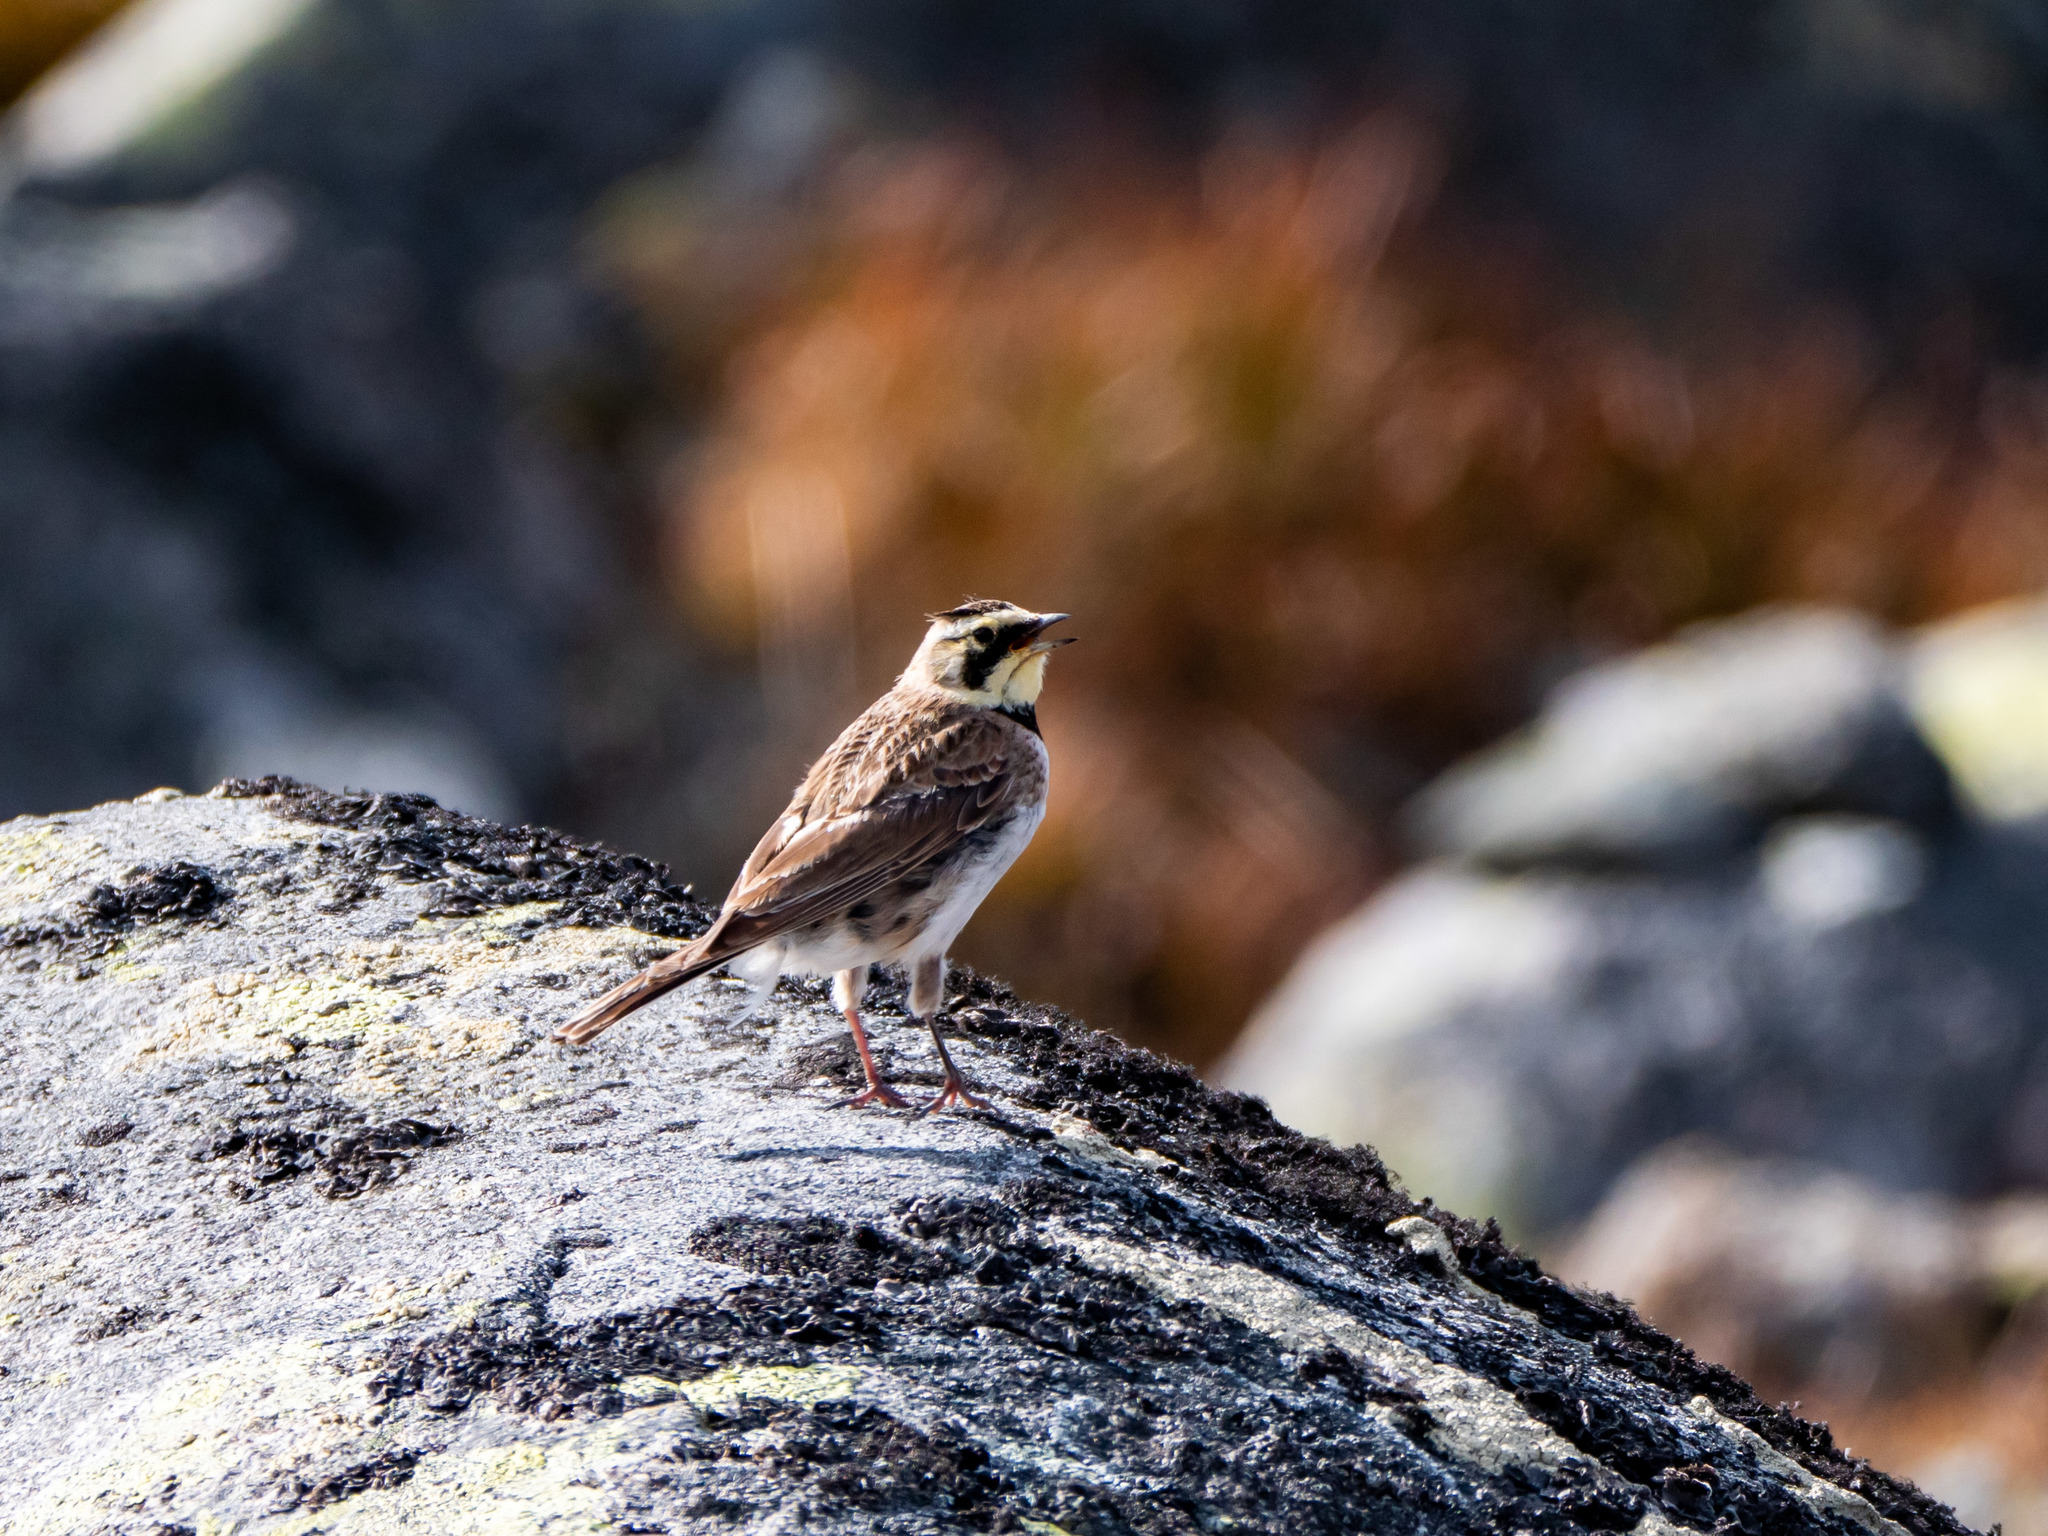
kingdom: Animalia
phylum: Chordata
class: Aves
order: Passeriformes
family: Alaudidae
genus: Eremophila
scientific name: Eremophila alpestris
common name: Horned lark
